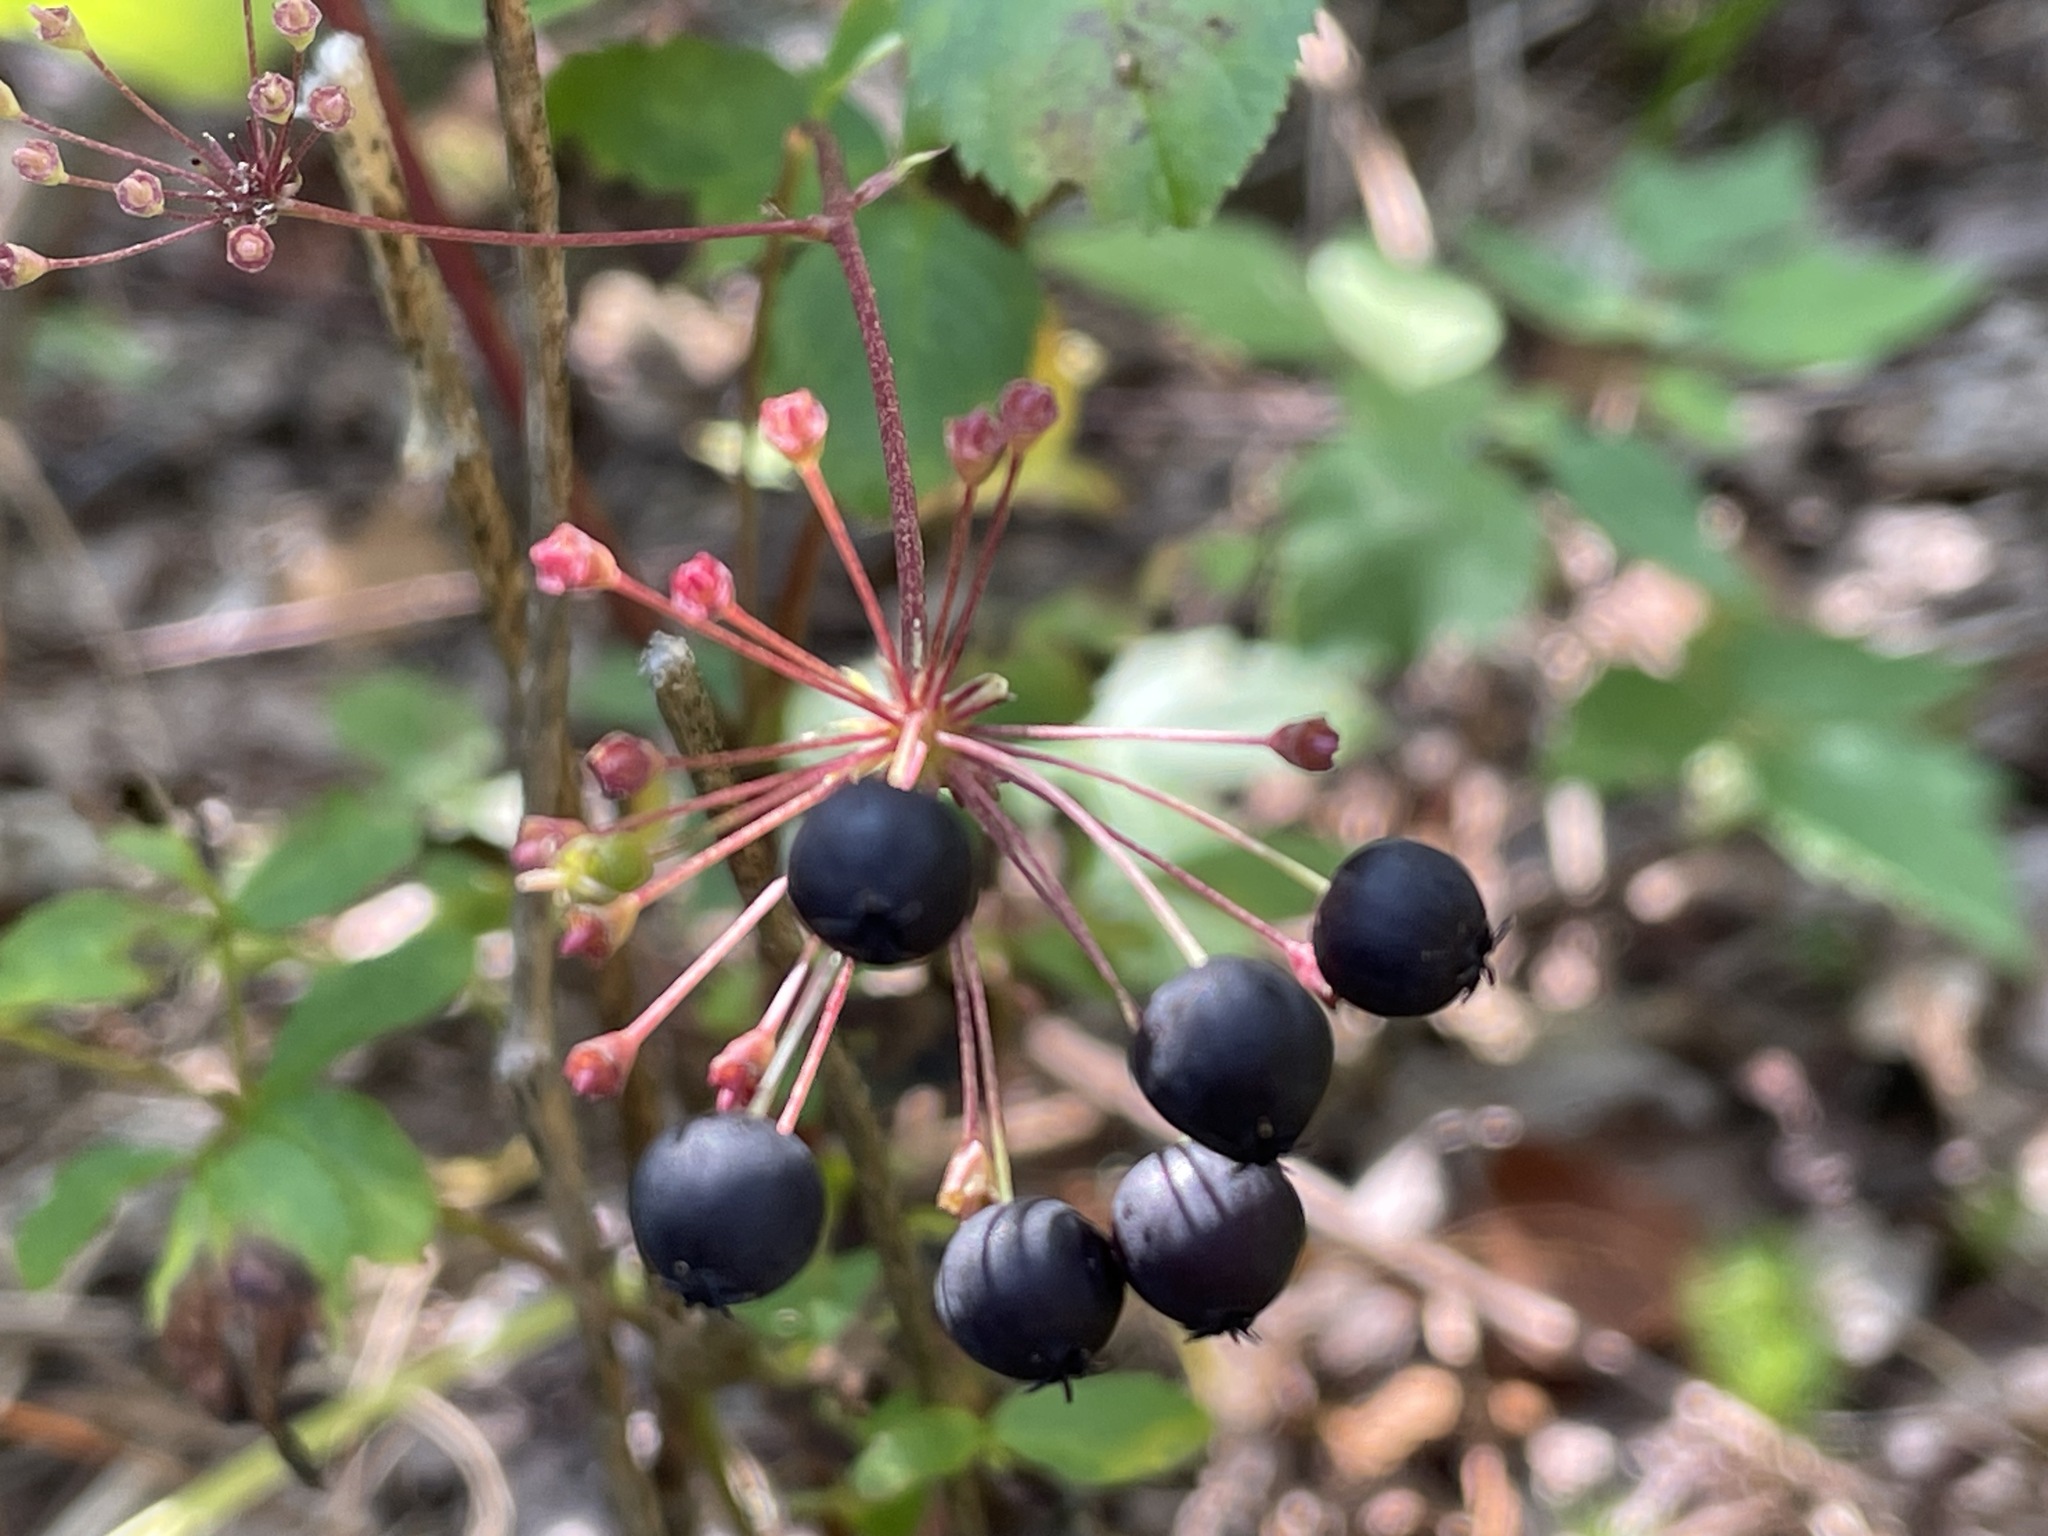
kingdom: Plantae
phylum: Tracheophyta
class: Magnoliopsida
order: Apiales
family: Araliaceae
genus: Aralia
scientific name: Aralia hispida
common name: Bristly sarsaparilla
